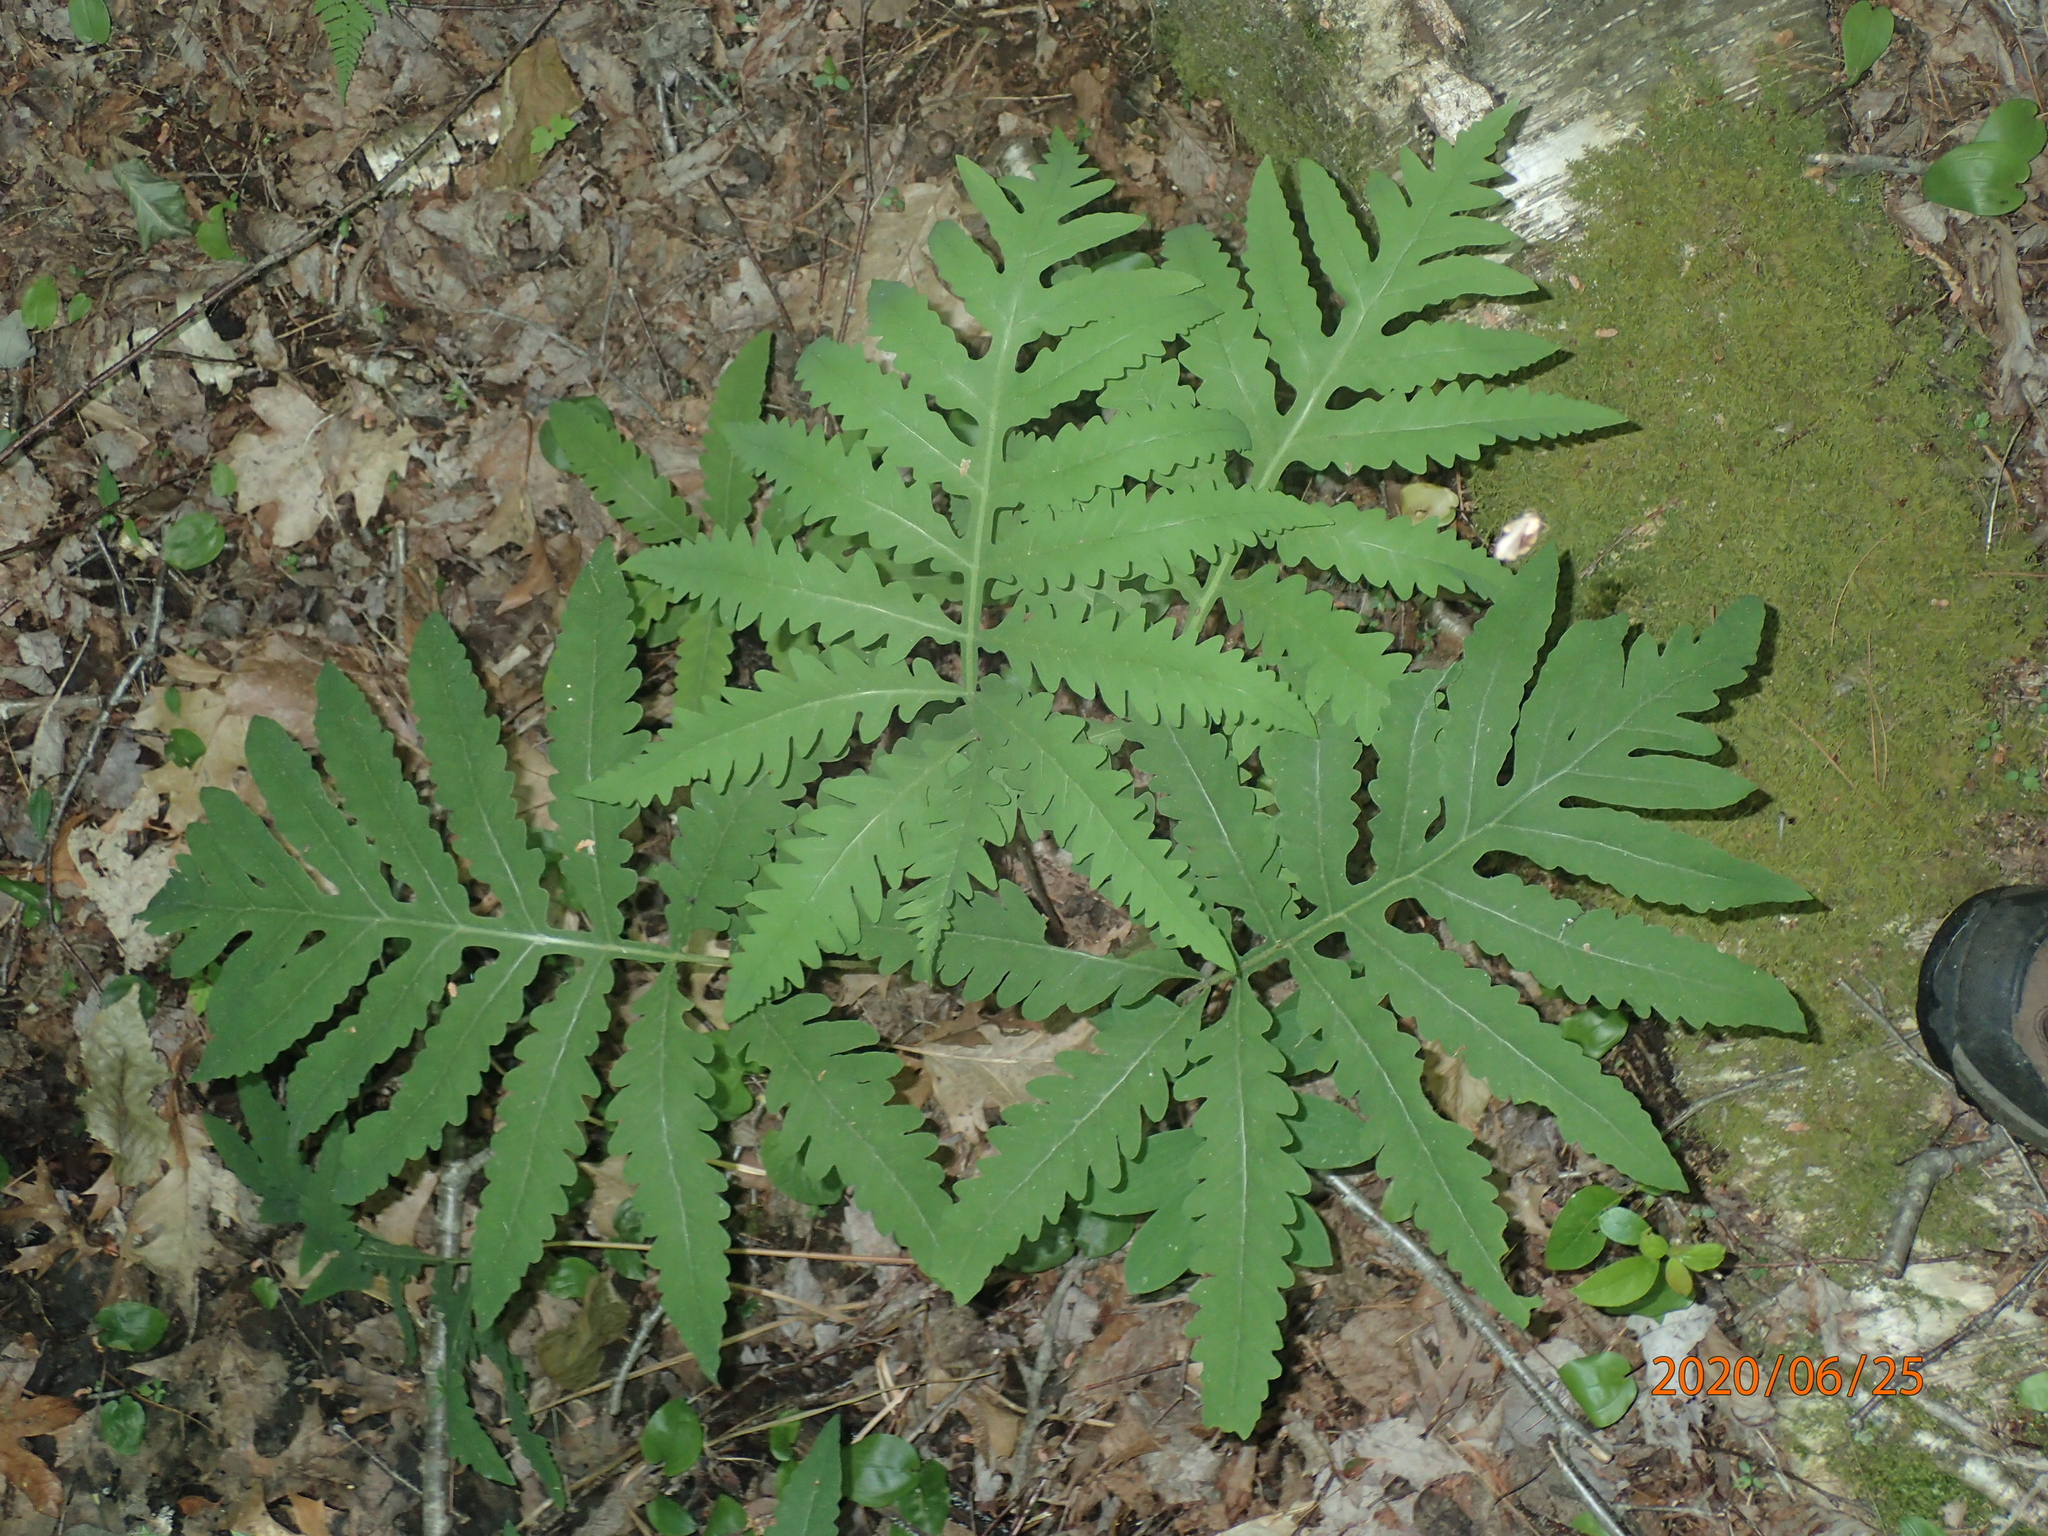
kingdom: Plantae
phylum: Tracheophyta
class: Polypodiopsida
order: Polypodiales
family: Onocleaceae
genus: Onoclea
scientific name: Onoclea sensibilis
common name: Sensitive fern
